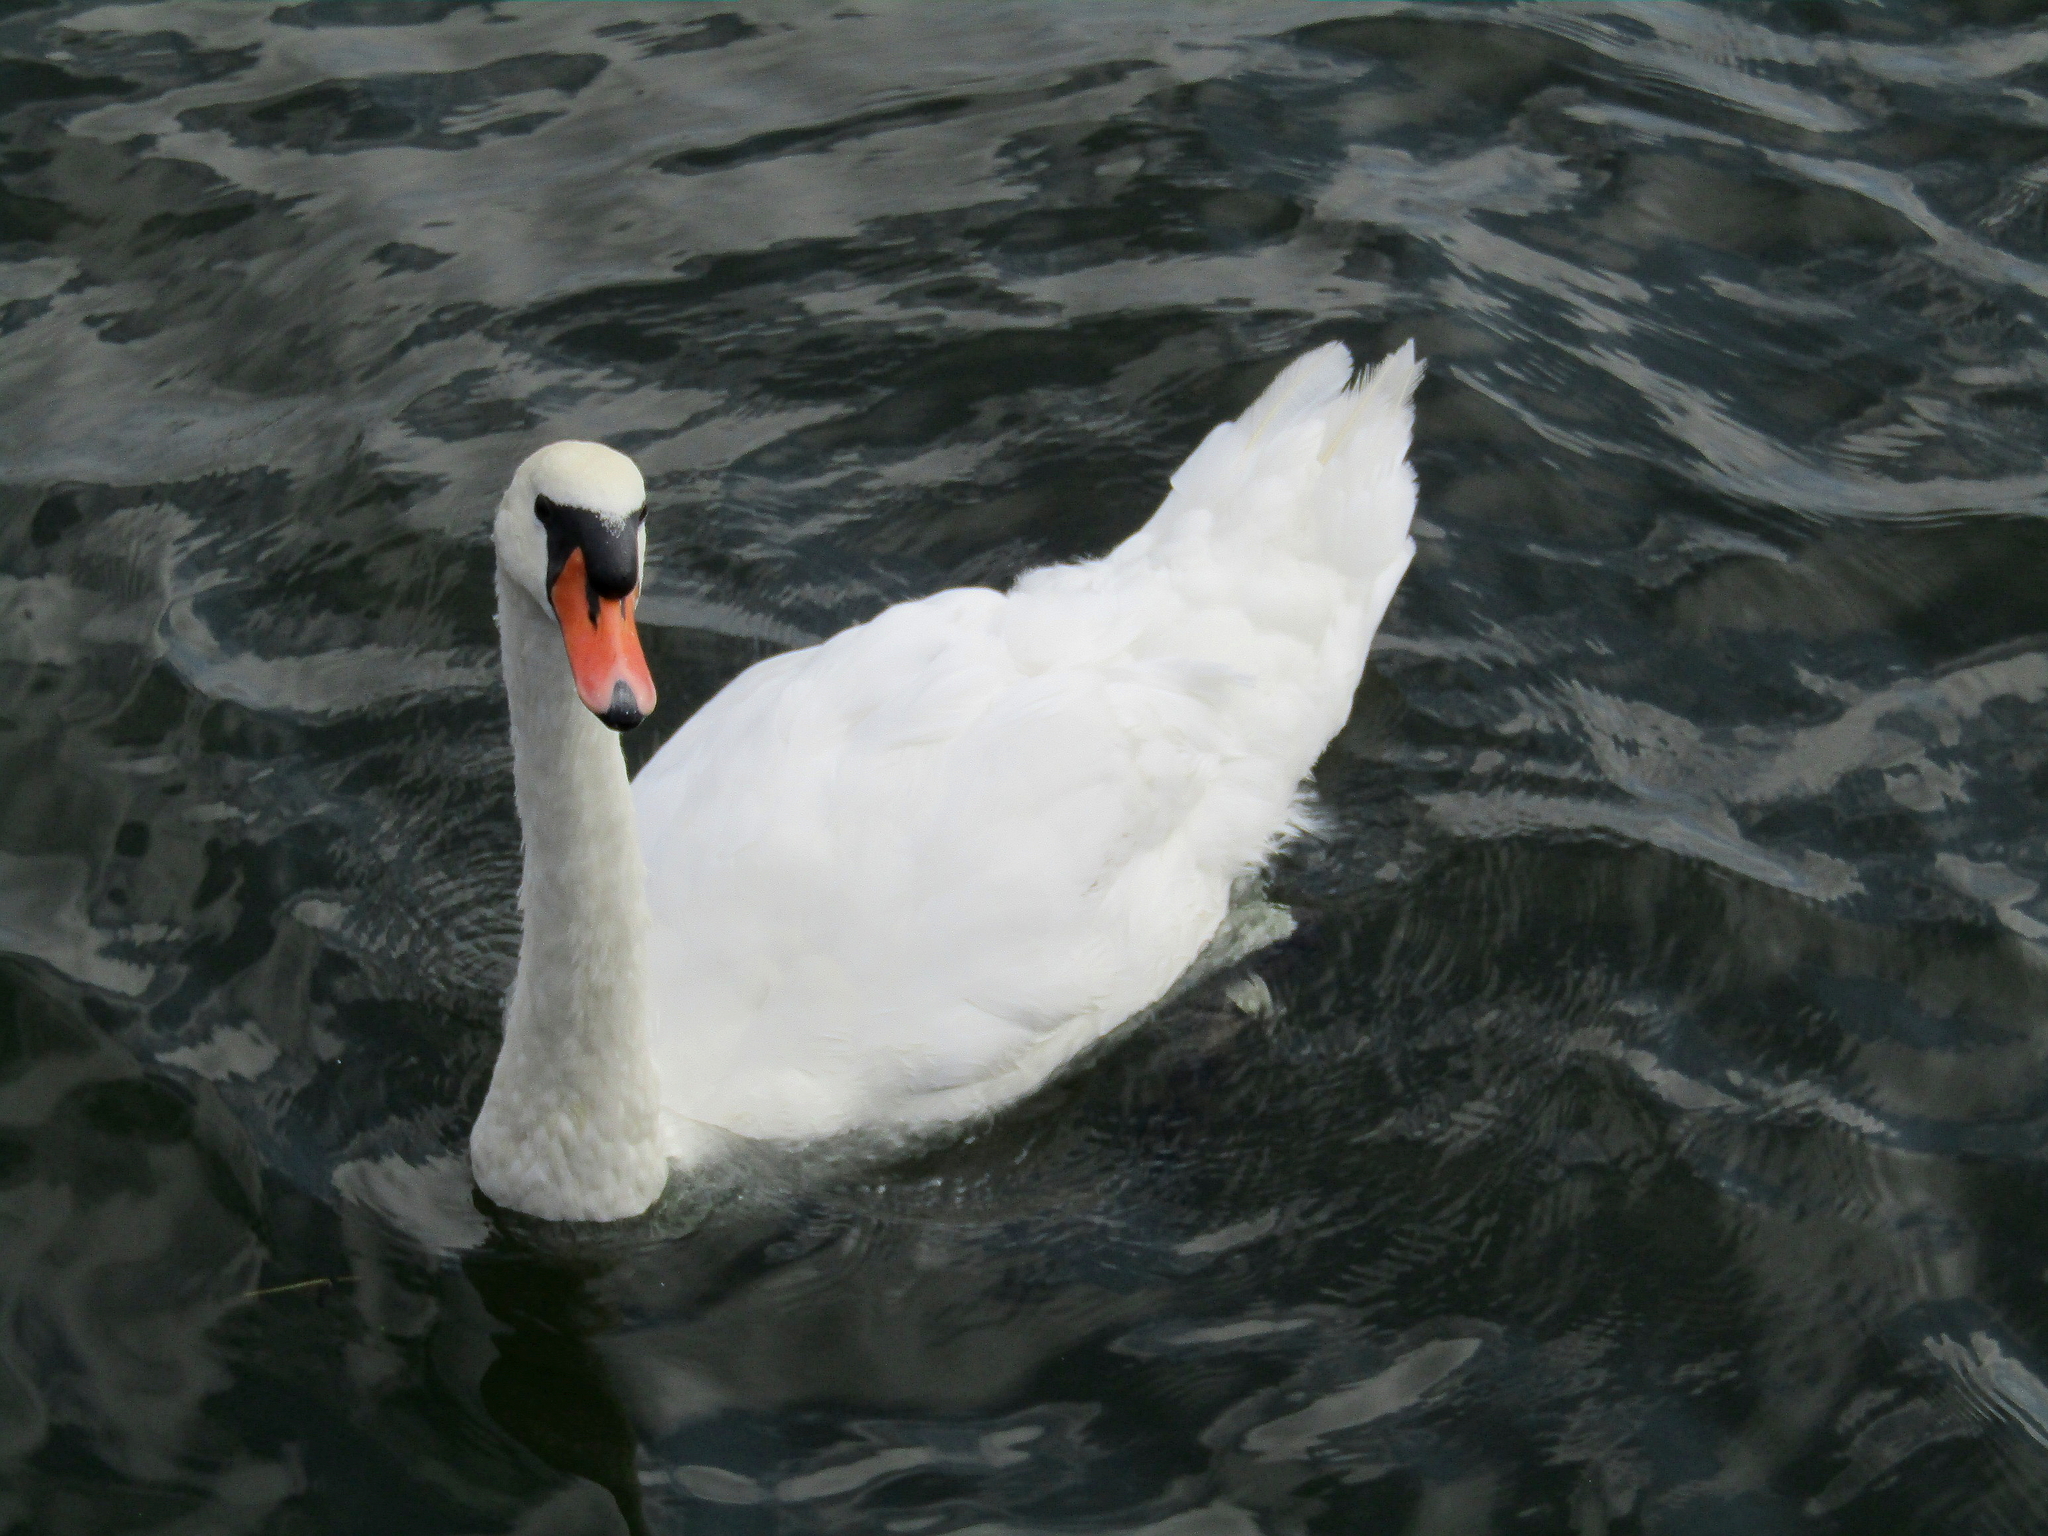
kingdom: Animalia
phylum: Chordata
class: Aves
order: Anseriformes
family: Anatidae
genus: Cygnus
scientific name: Cygnus olor
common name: Mute swan
